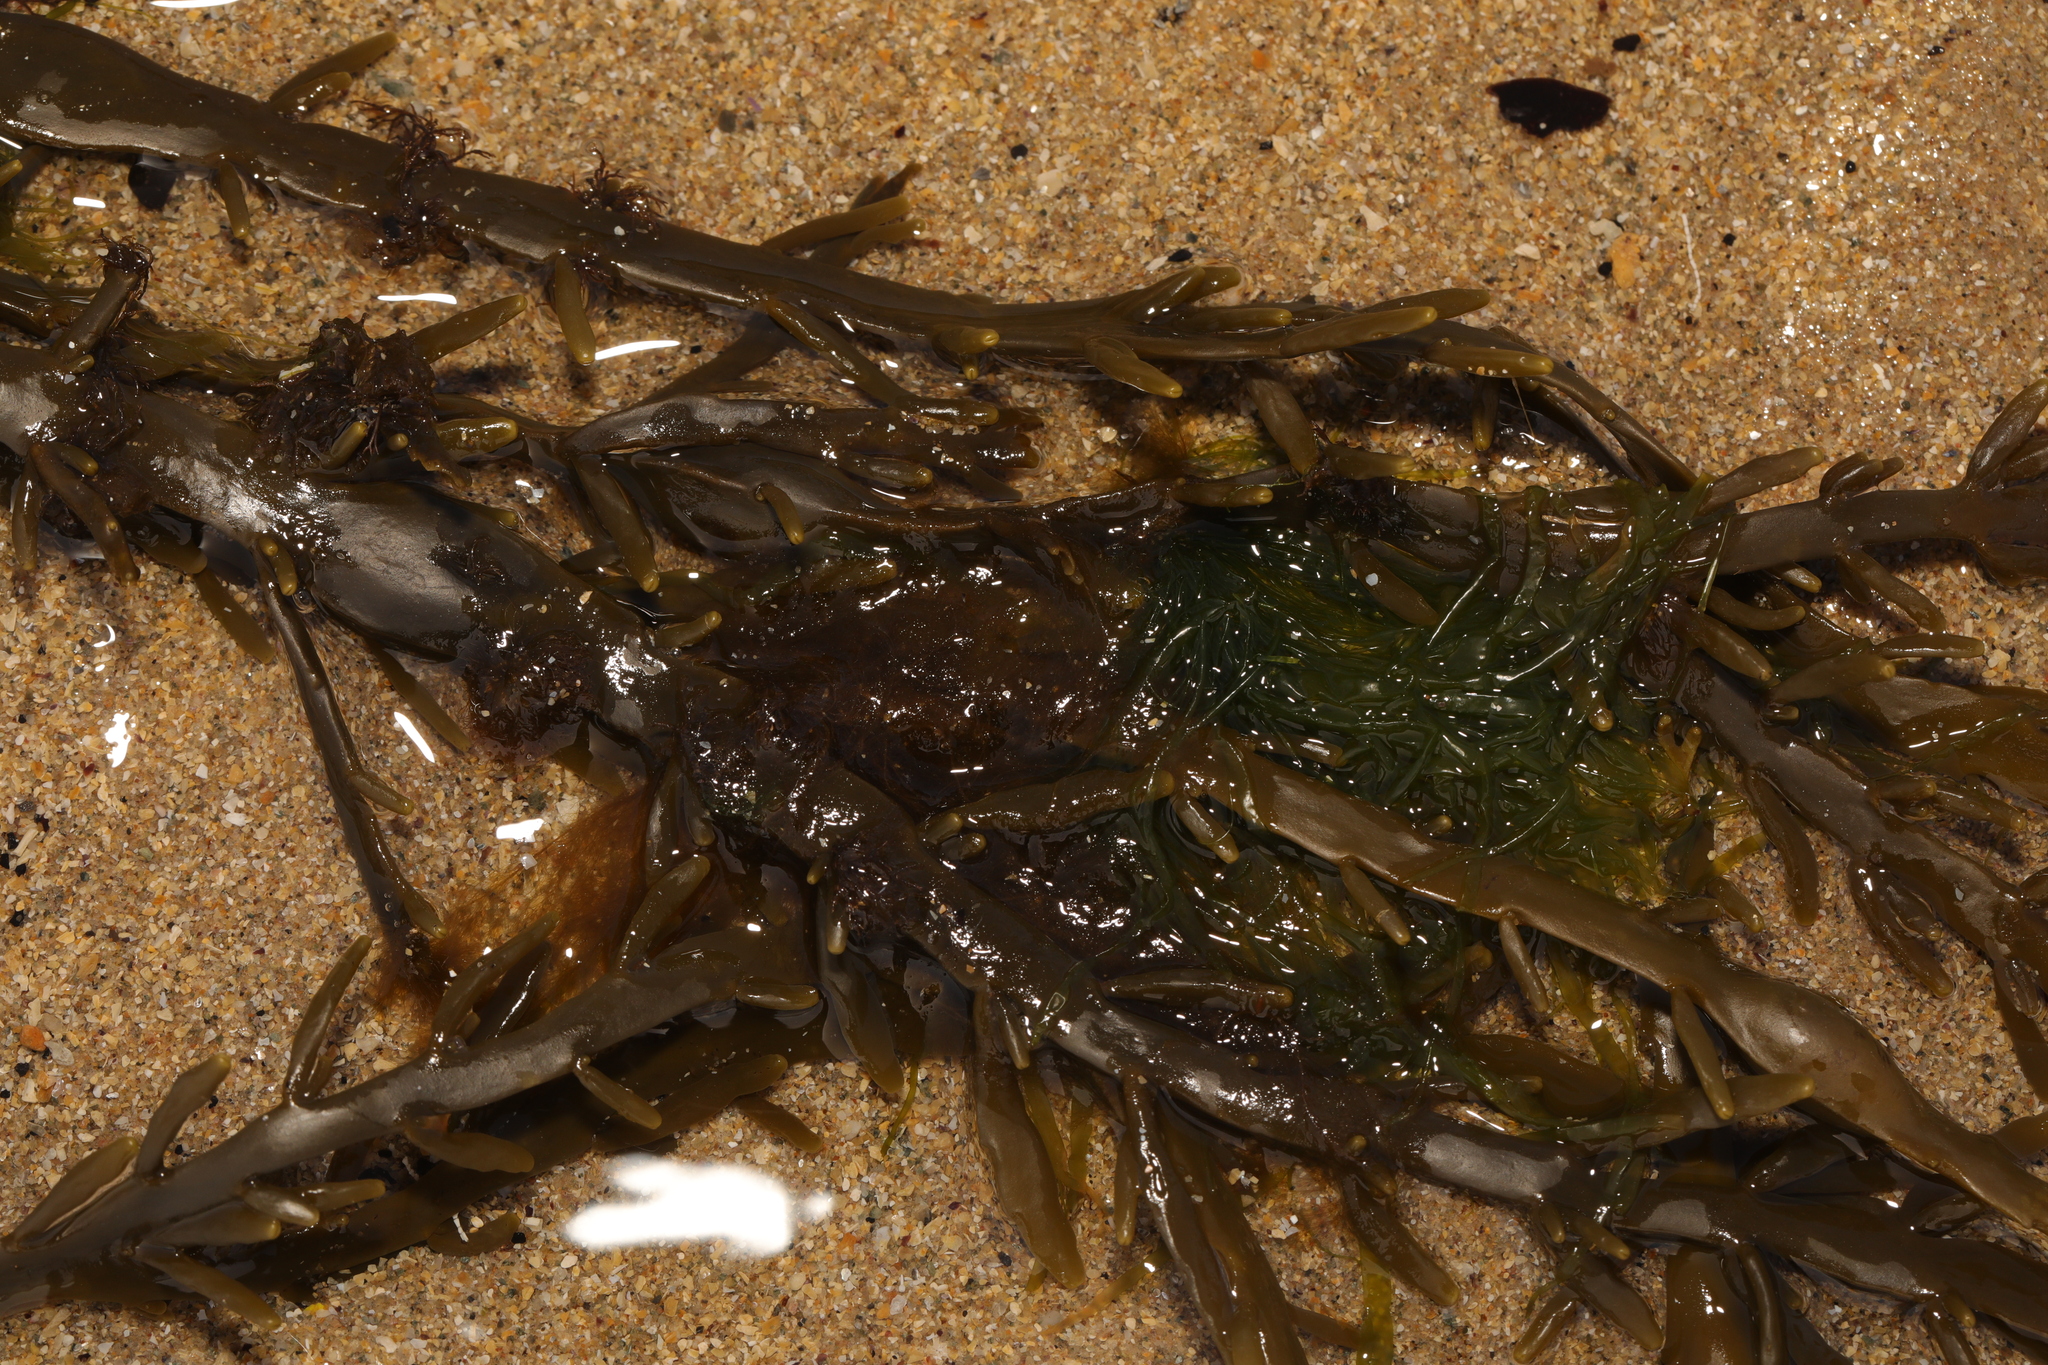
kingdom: Chromista
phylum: Ochrophyta
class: Phaeophyceae
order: Fucales
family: Fucaceae
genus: Ascophyllum
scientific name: Ascophyllum nodosum
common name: Knotted wrack
